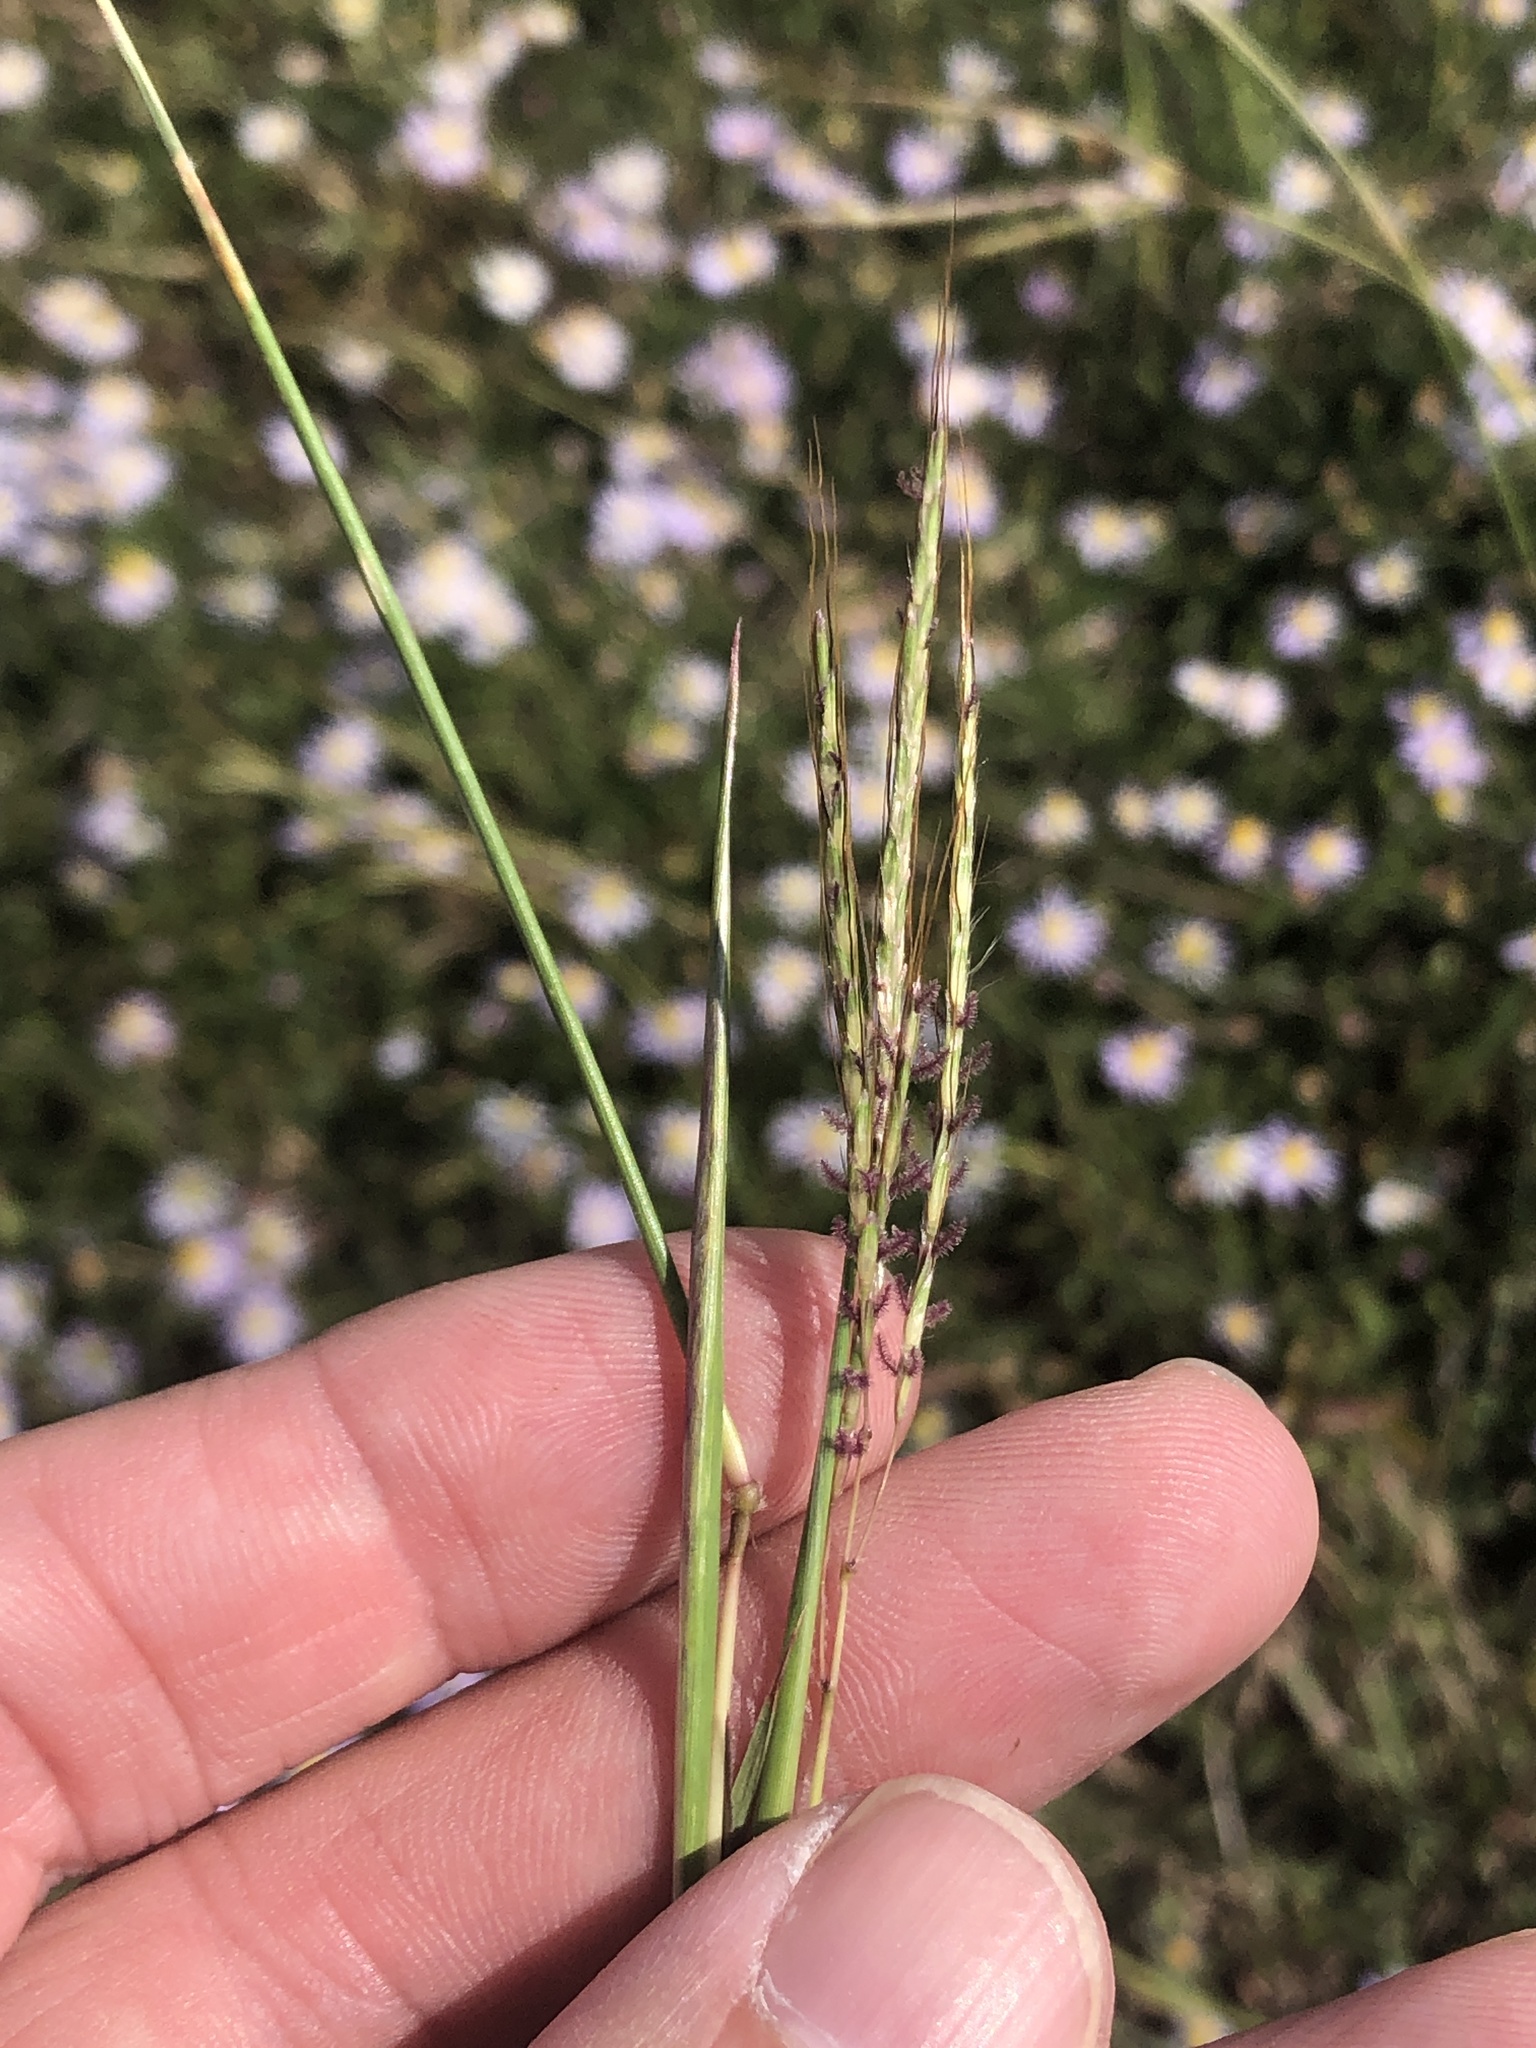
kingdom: Plantae
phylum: Tracheophyta
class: Liliopsida
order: Poales
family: Poaceae
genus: Bothriochloa
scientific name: Bothriochloa ischaemum
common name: Yellow bluestem
